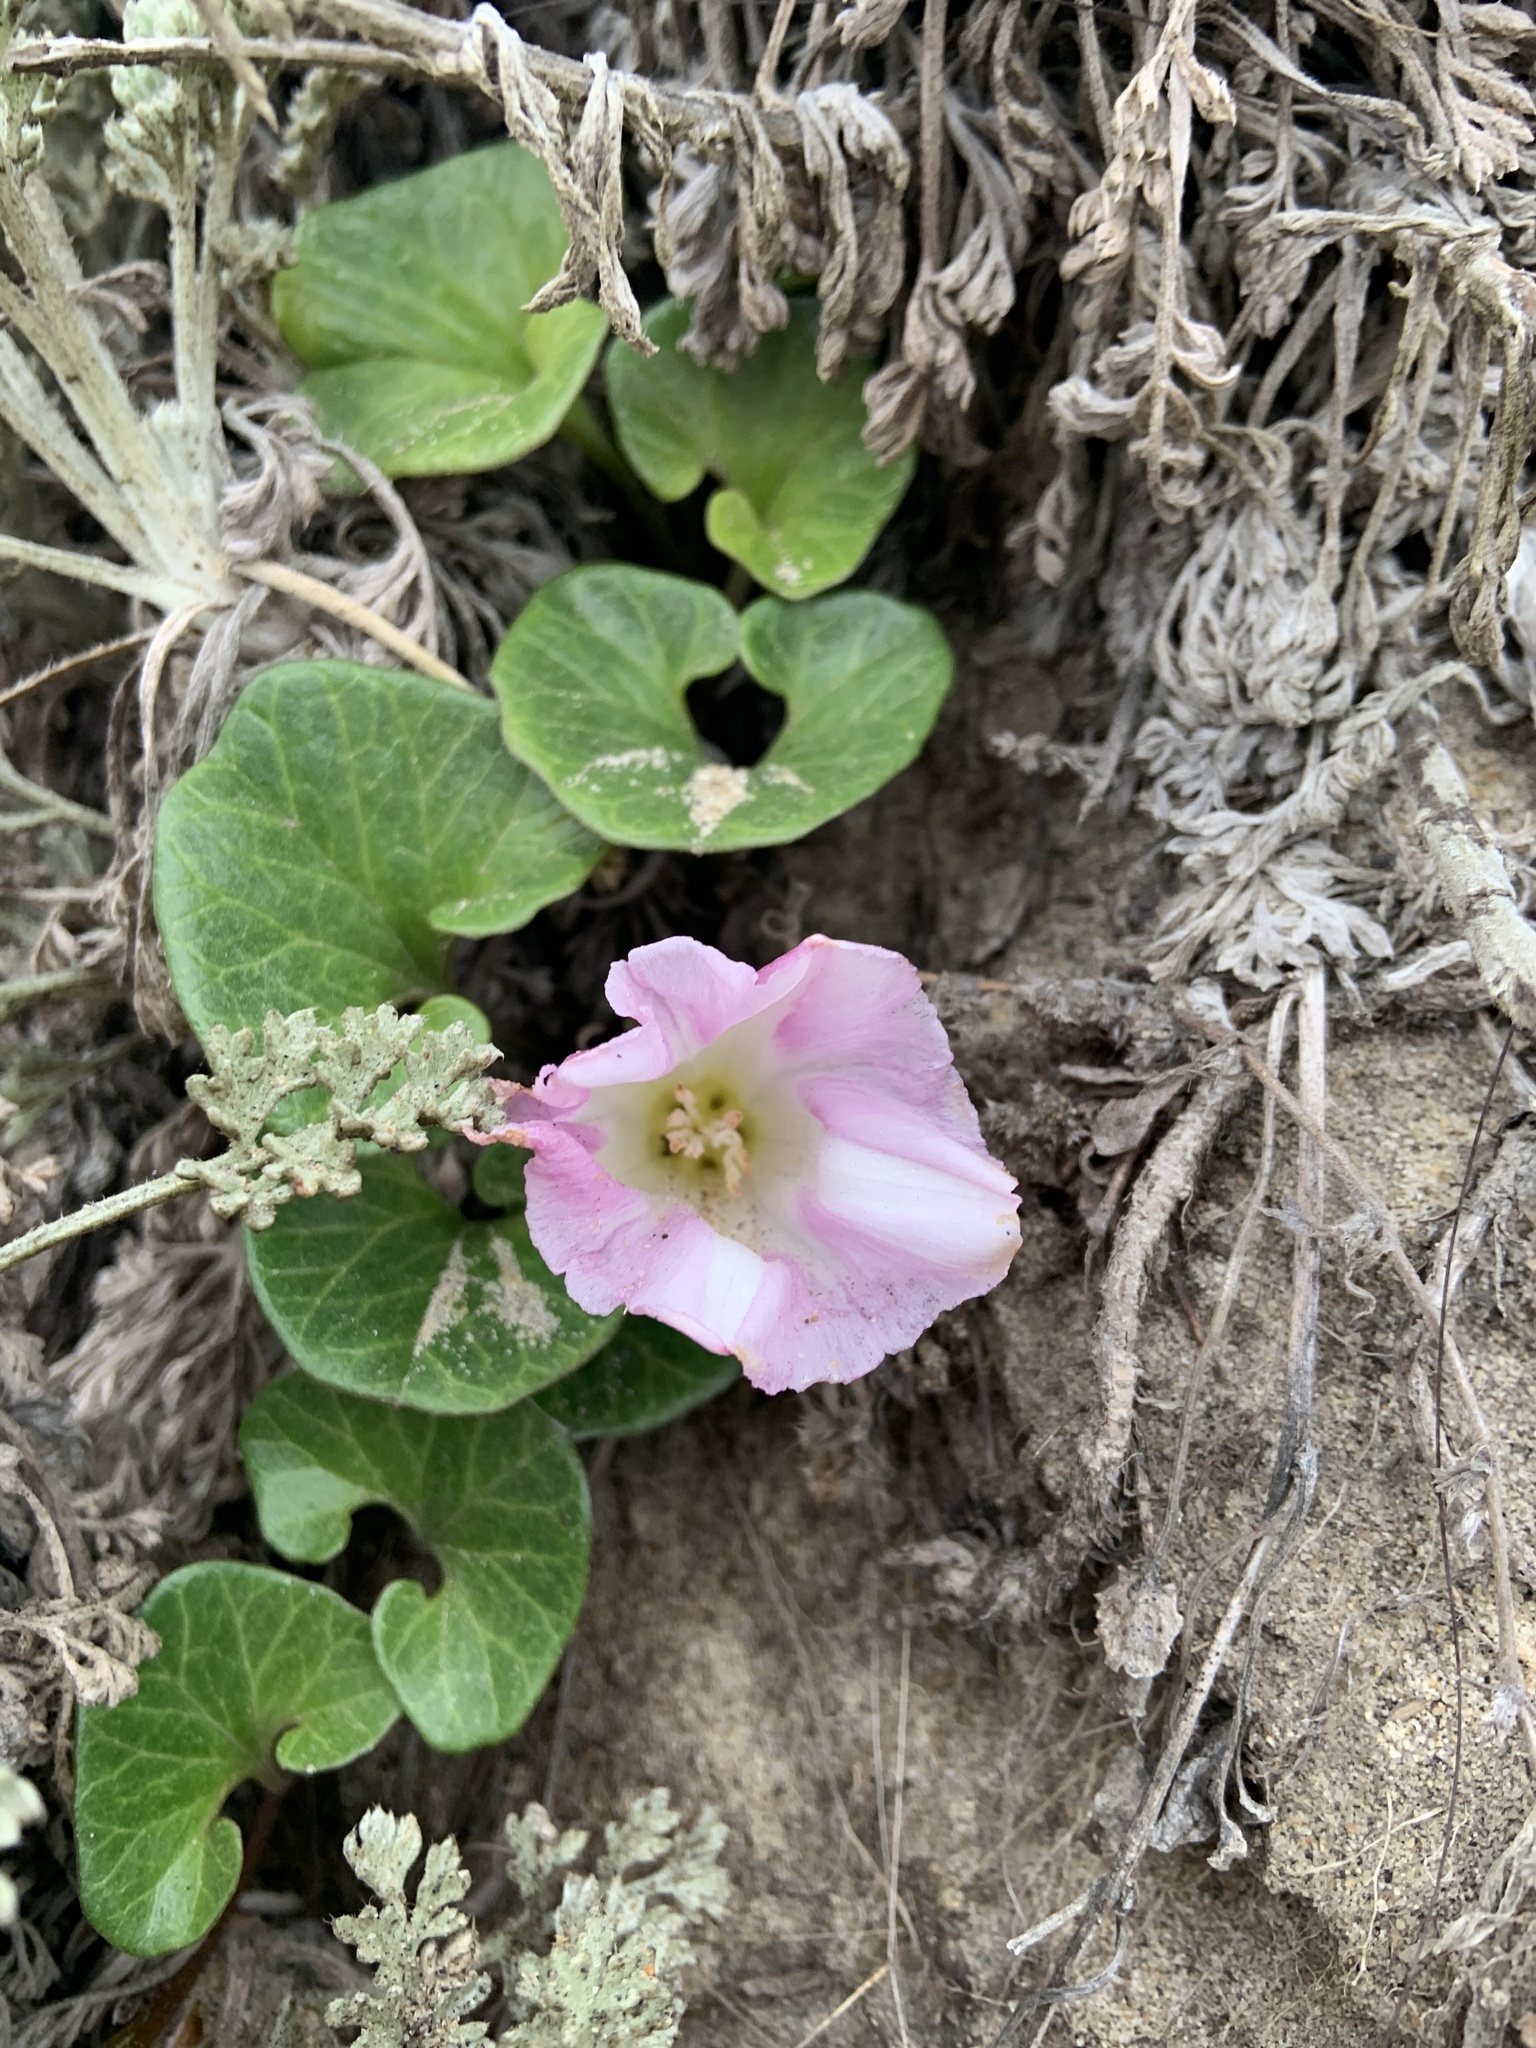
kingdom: Plantae
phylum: Tracheophyta
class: Magnoliopsida
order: Solanales
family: Convolvulaceae
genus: Calystegia
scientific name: Calystegia soldanella
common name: Sea bindweed
